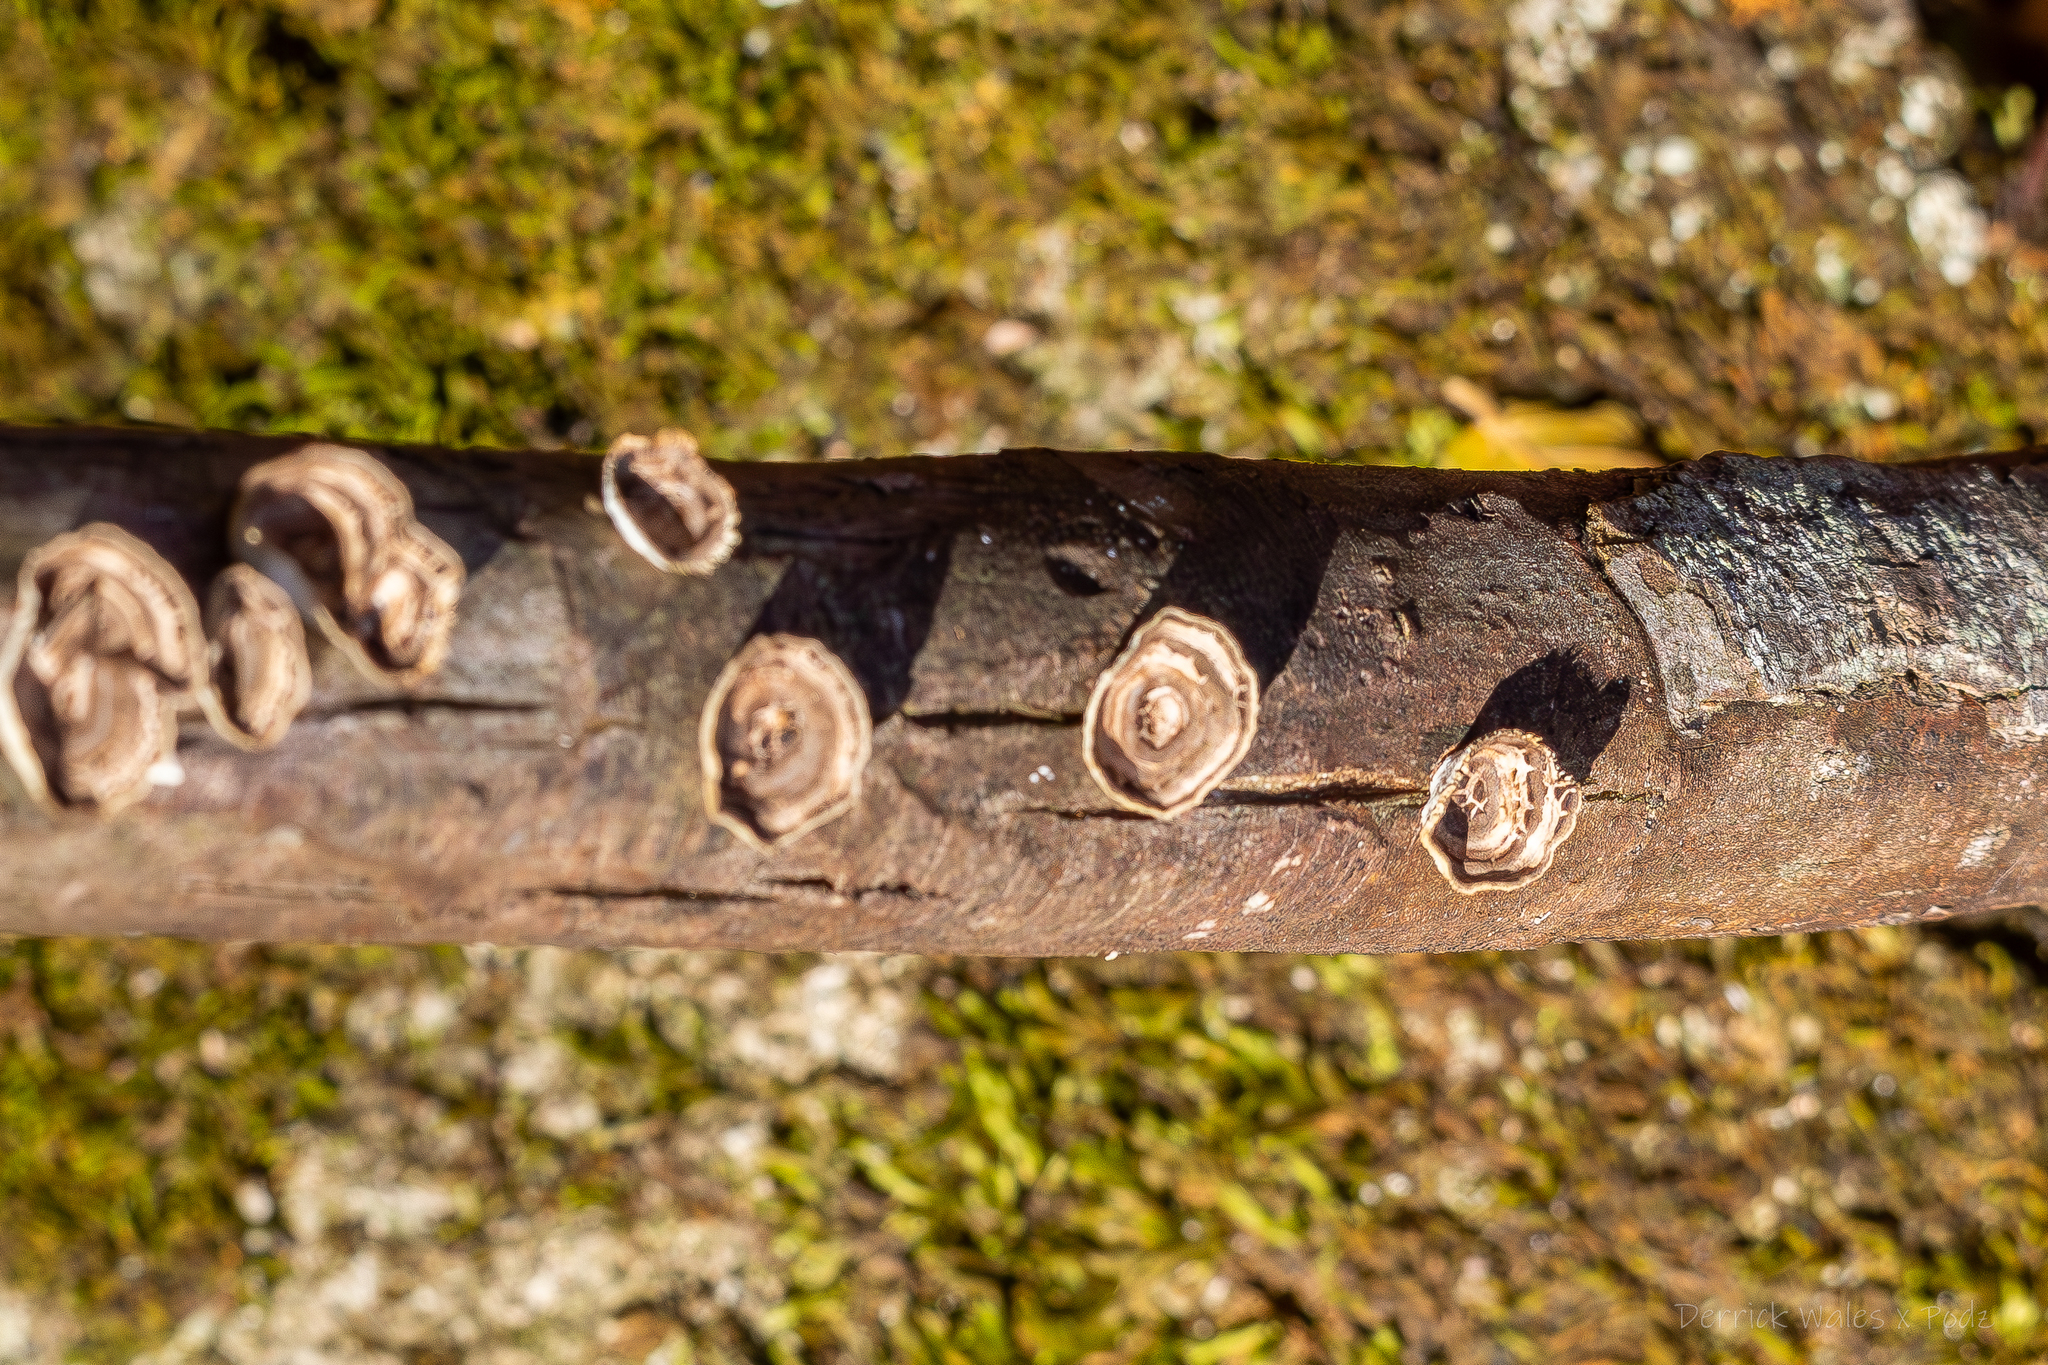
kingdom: Fungi
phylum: Basidiomycota
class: Agaricomycetes
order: Polyporales
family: Polyporaceae
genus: Poronidulus
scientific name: Poronidulus conchifer
